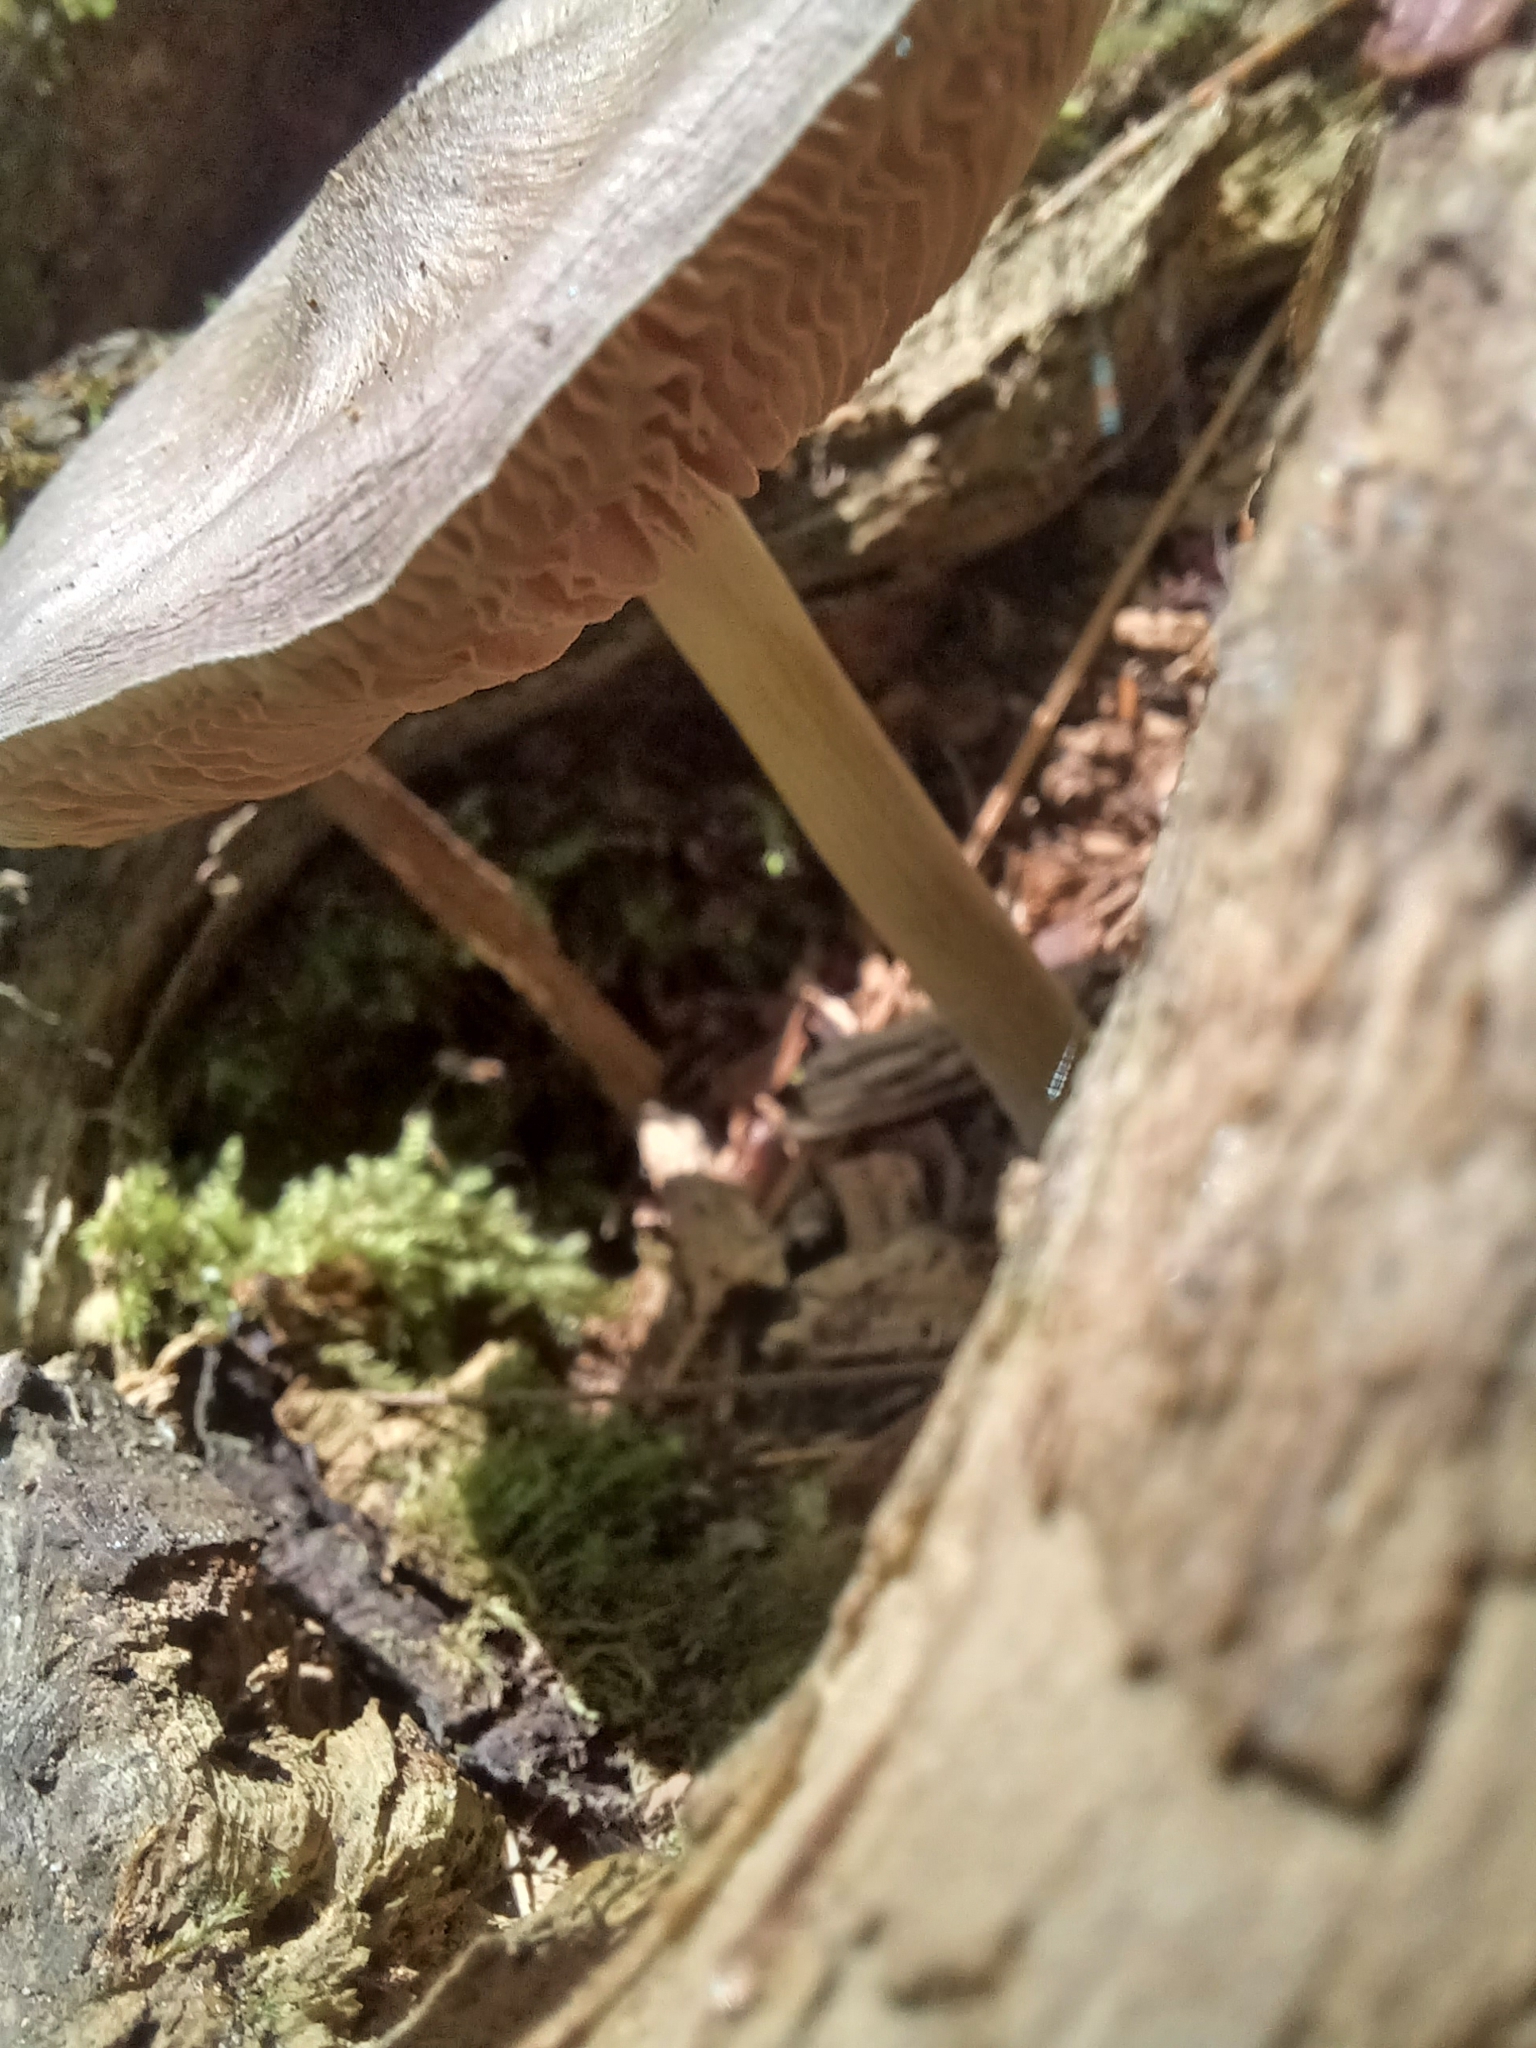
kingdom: Fungi
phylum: Basidiomycota
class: Agaricomycetes
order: Agaricales
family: Pluteaceae
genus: Pluteus
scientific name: Pluteus longistriatus
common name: Pleated pluteus
